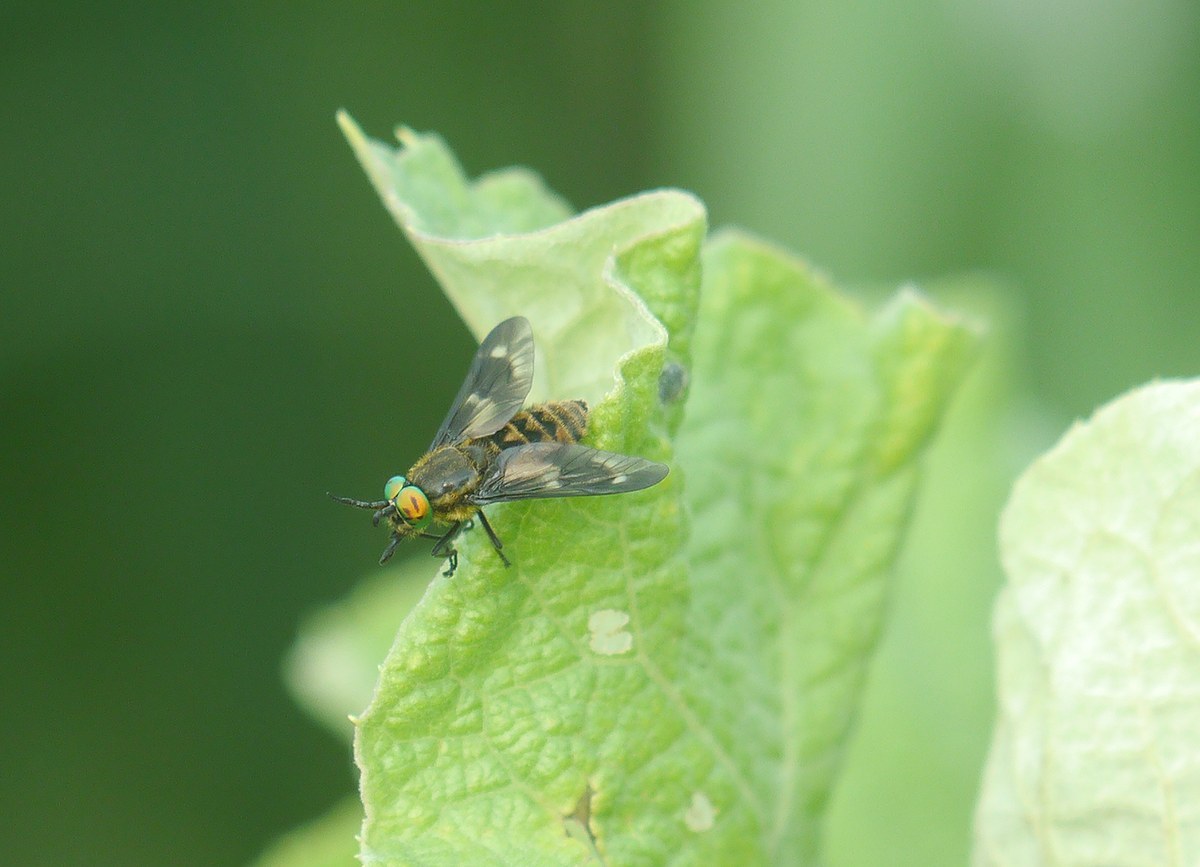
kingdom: Animalia
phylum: Arthropoda
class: Insecta
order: Diptera
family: Tabanidae
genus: Chrysops
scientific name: Chrysops relictus
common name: Twin-lobed deerfly
